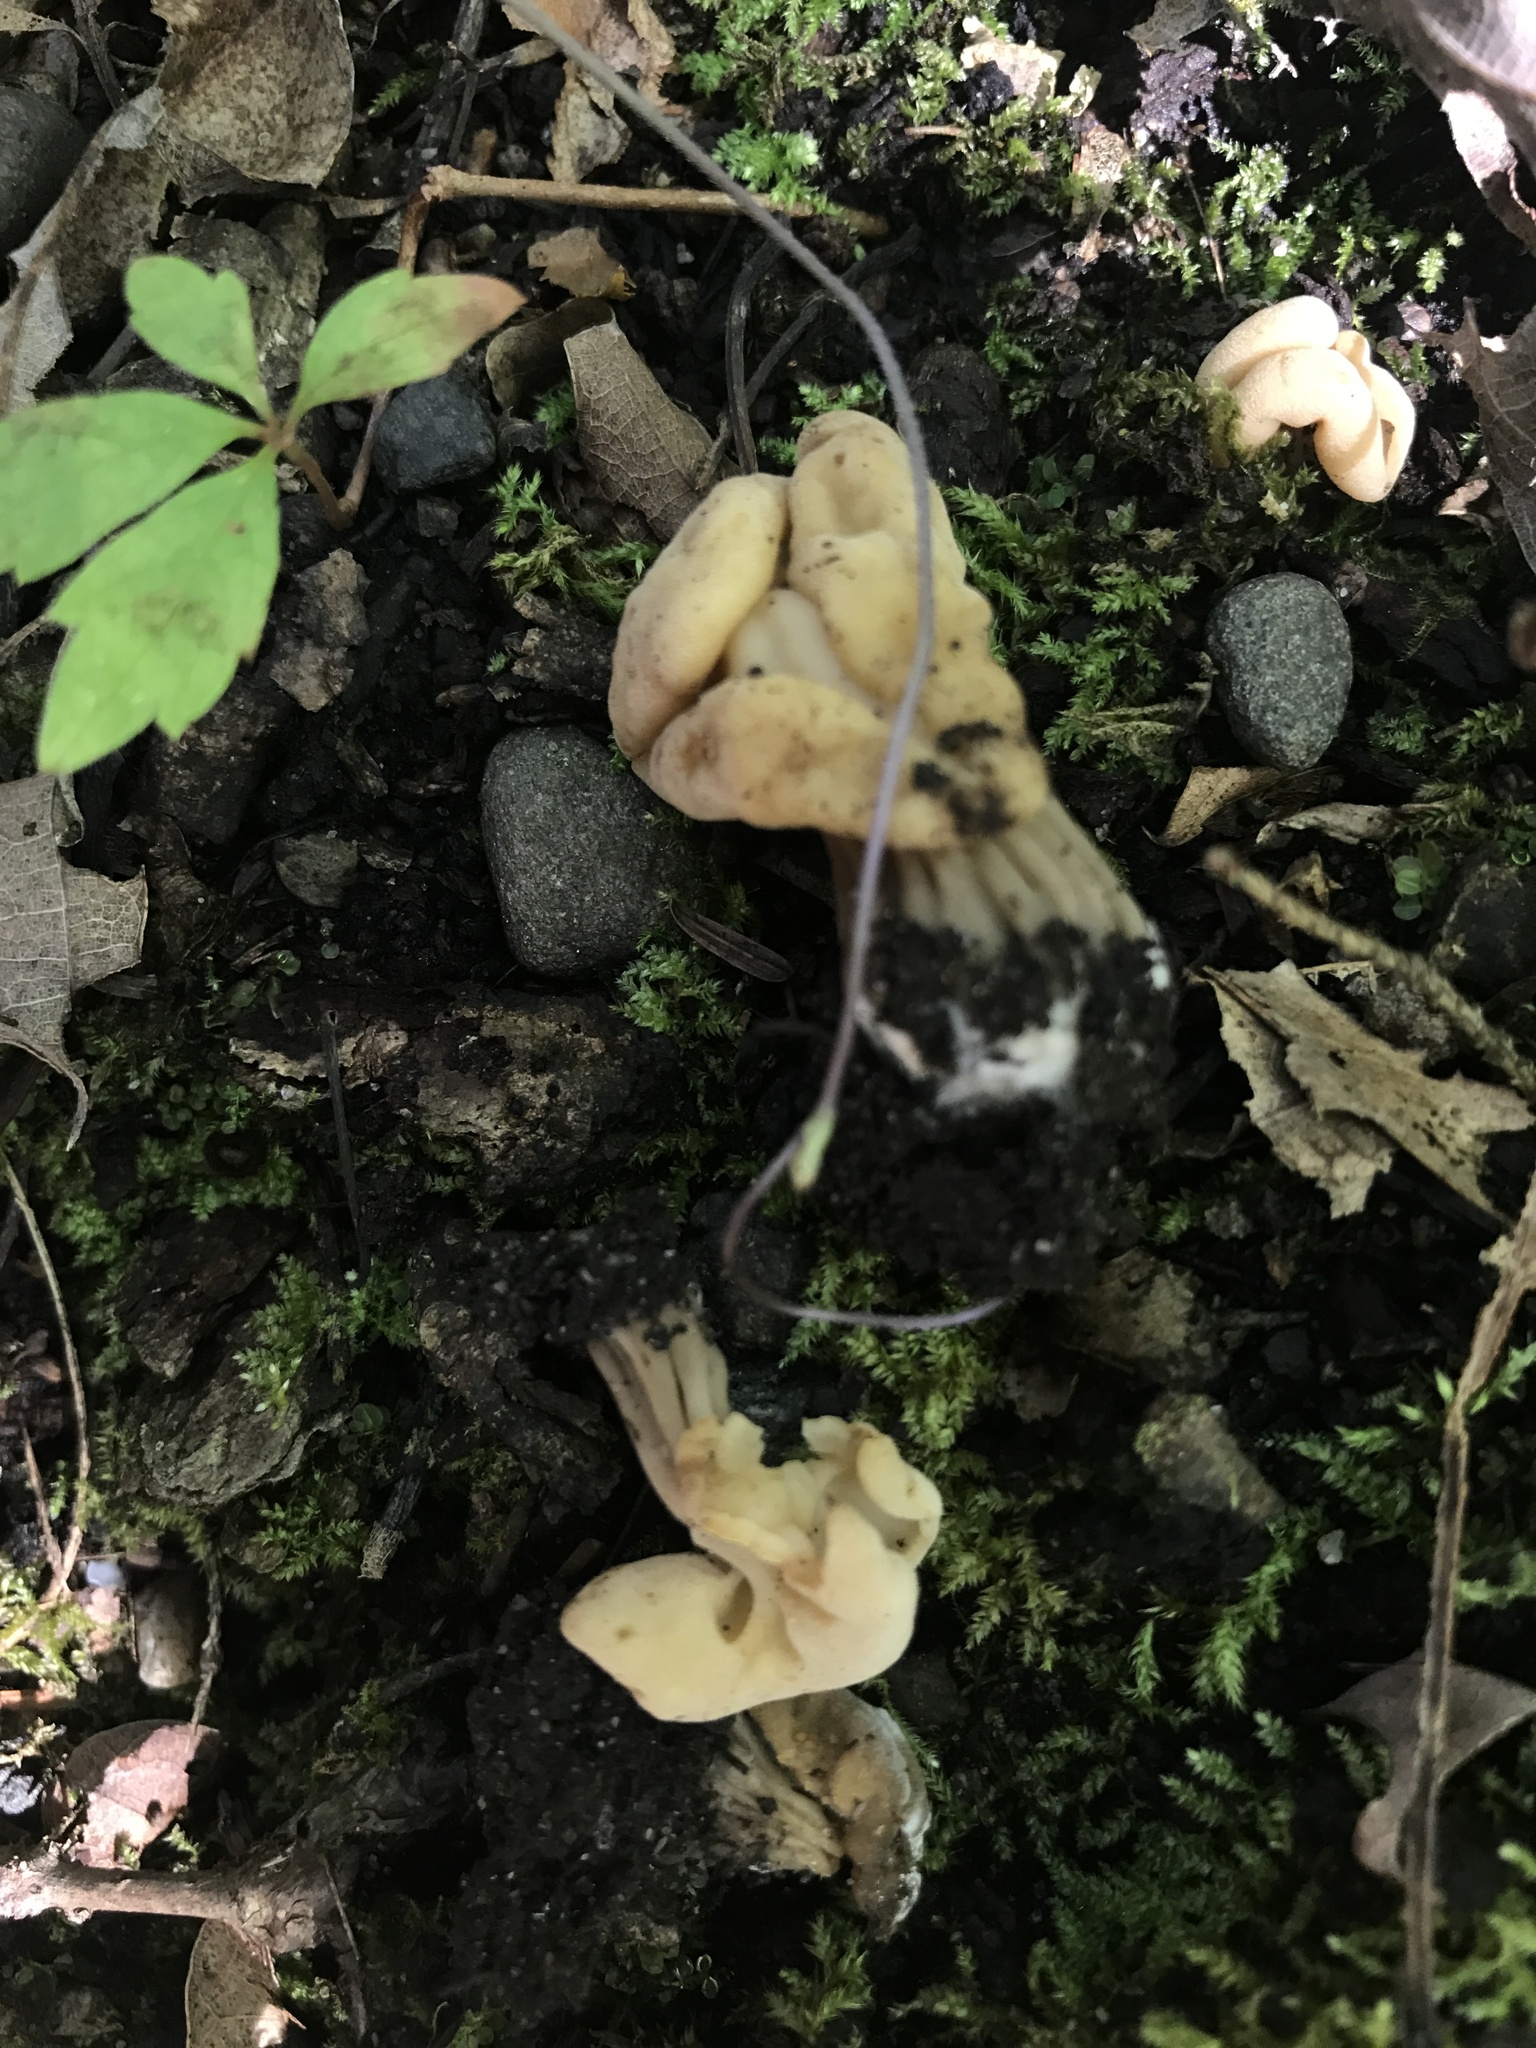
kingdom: Fungi
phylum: Ascomycota
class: Pezizomycetes
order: Pezizales
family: Helvellaceae
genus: Helvella
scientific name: Helvella crispa
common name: White saddle
